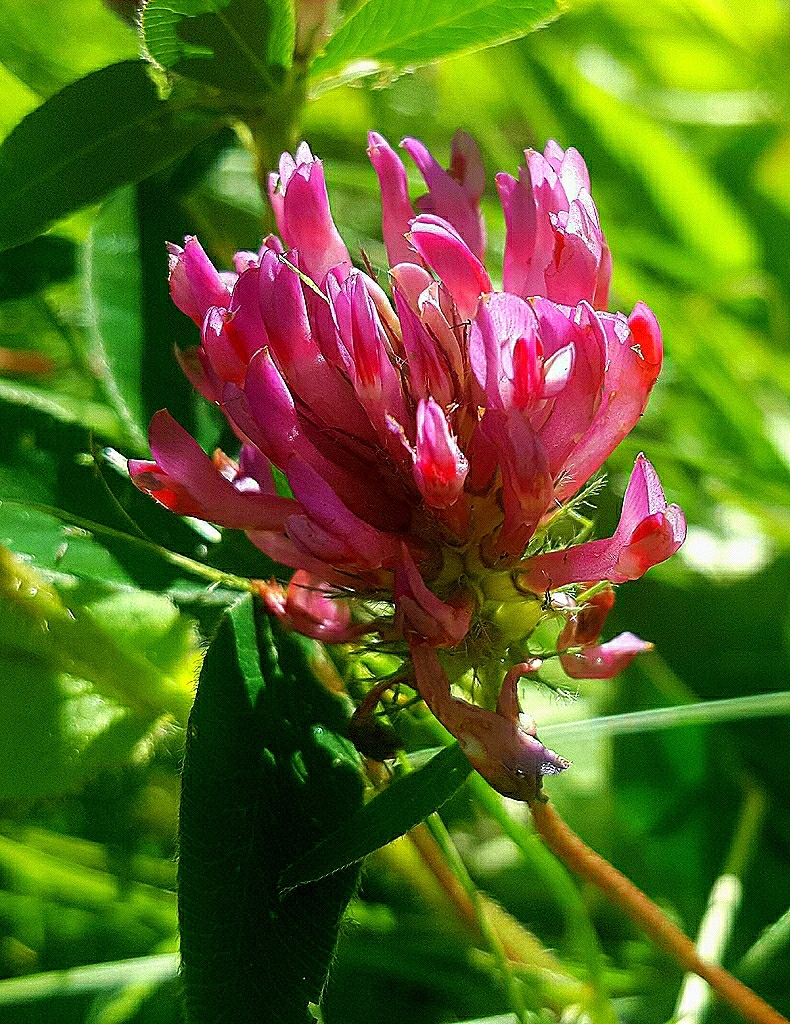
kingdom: Plantae
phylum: Tracheophyta
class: Magnoliopsida
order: Fabales
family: Fabaceae
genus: Trifolium
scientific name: Trifolium medium
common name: Zigzag clover
